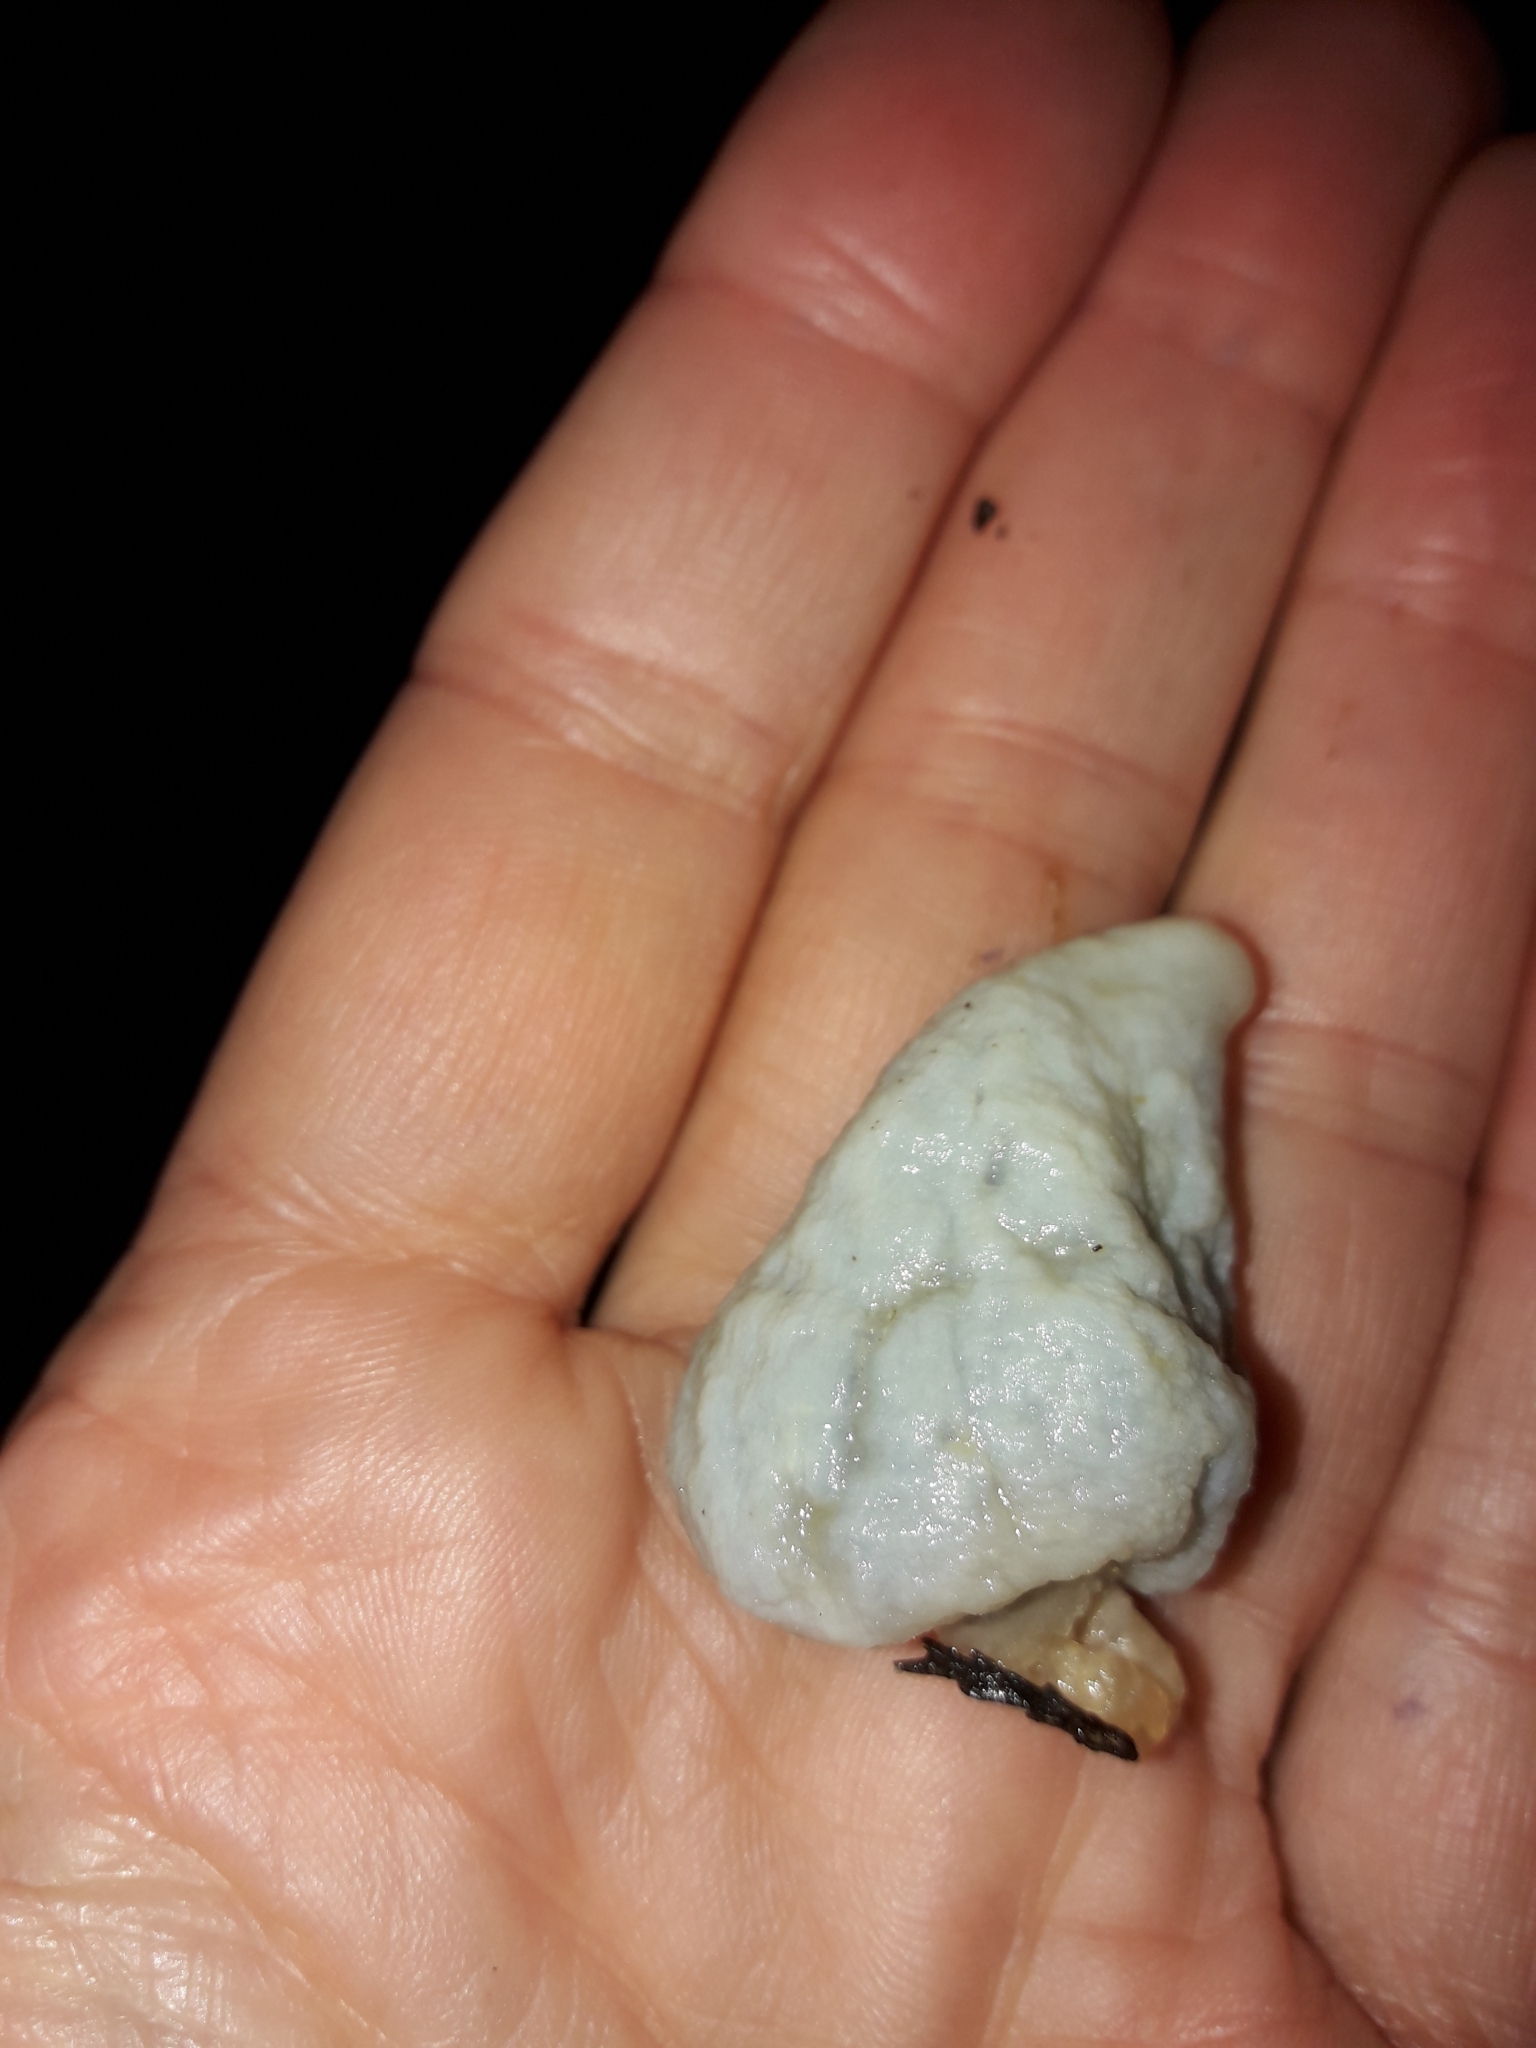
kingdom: Fungi
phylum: Basidiomycota
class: Agaricomycetes
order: Agaricales
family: Agaricaceae
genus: Clavogaster
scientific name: Clavogaster virescens
